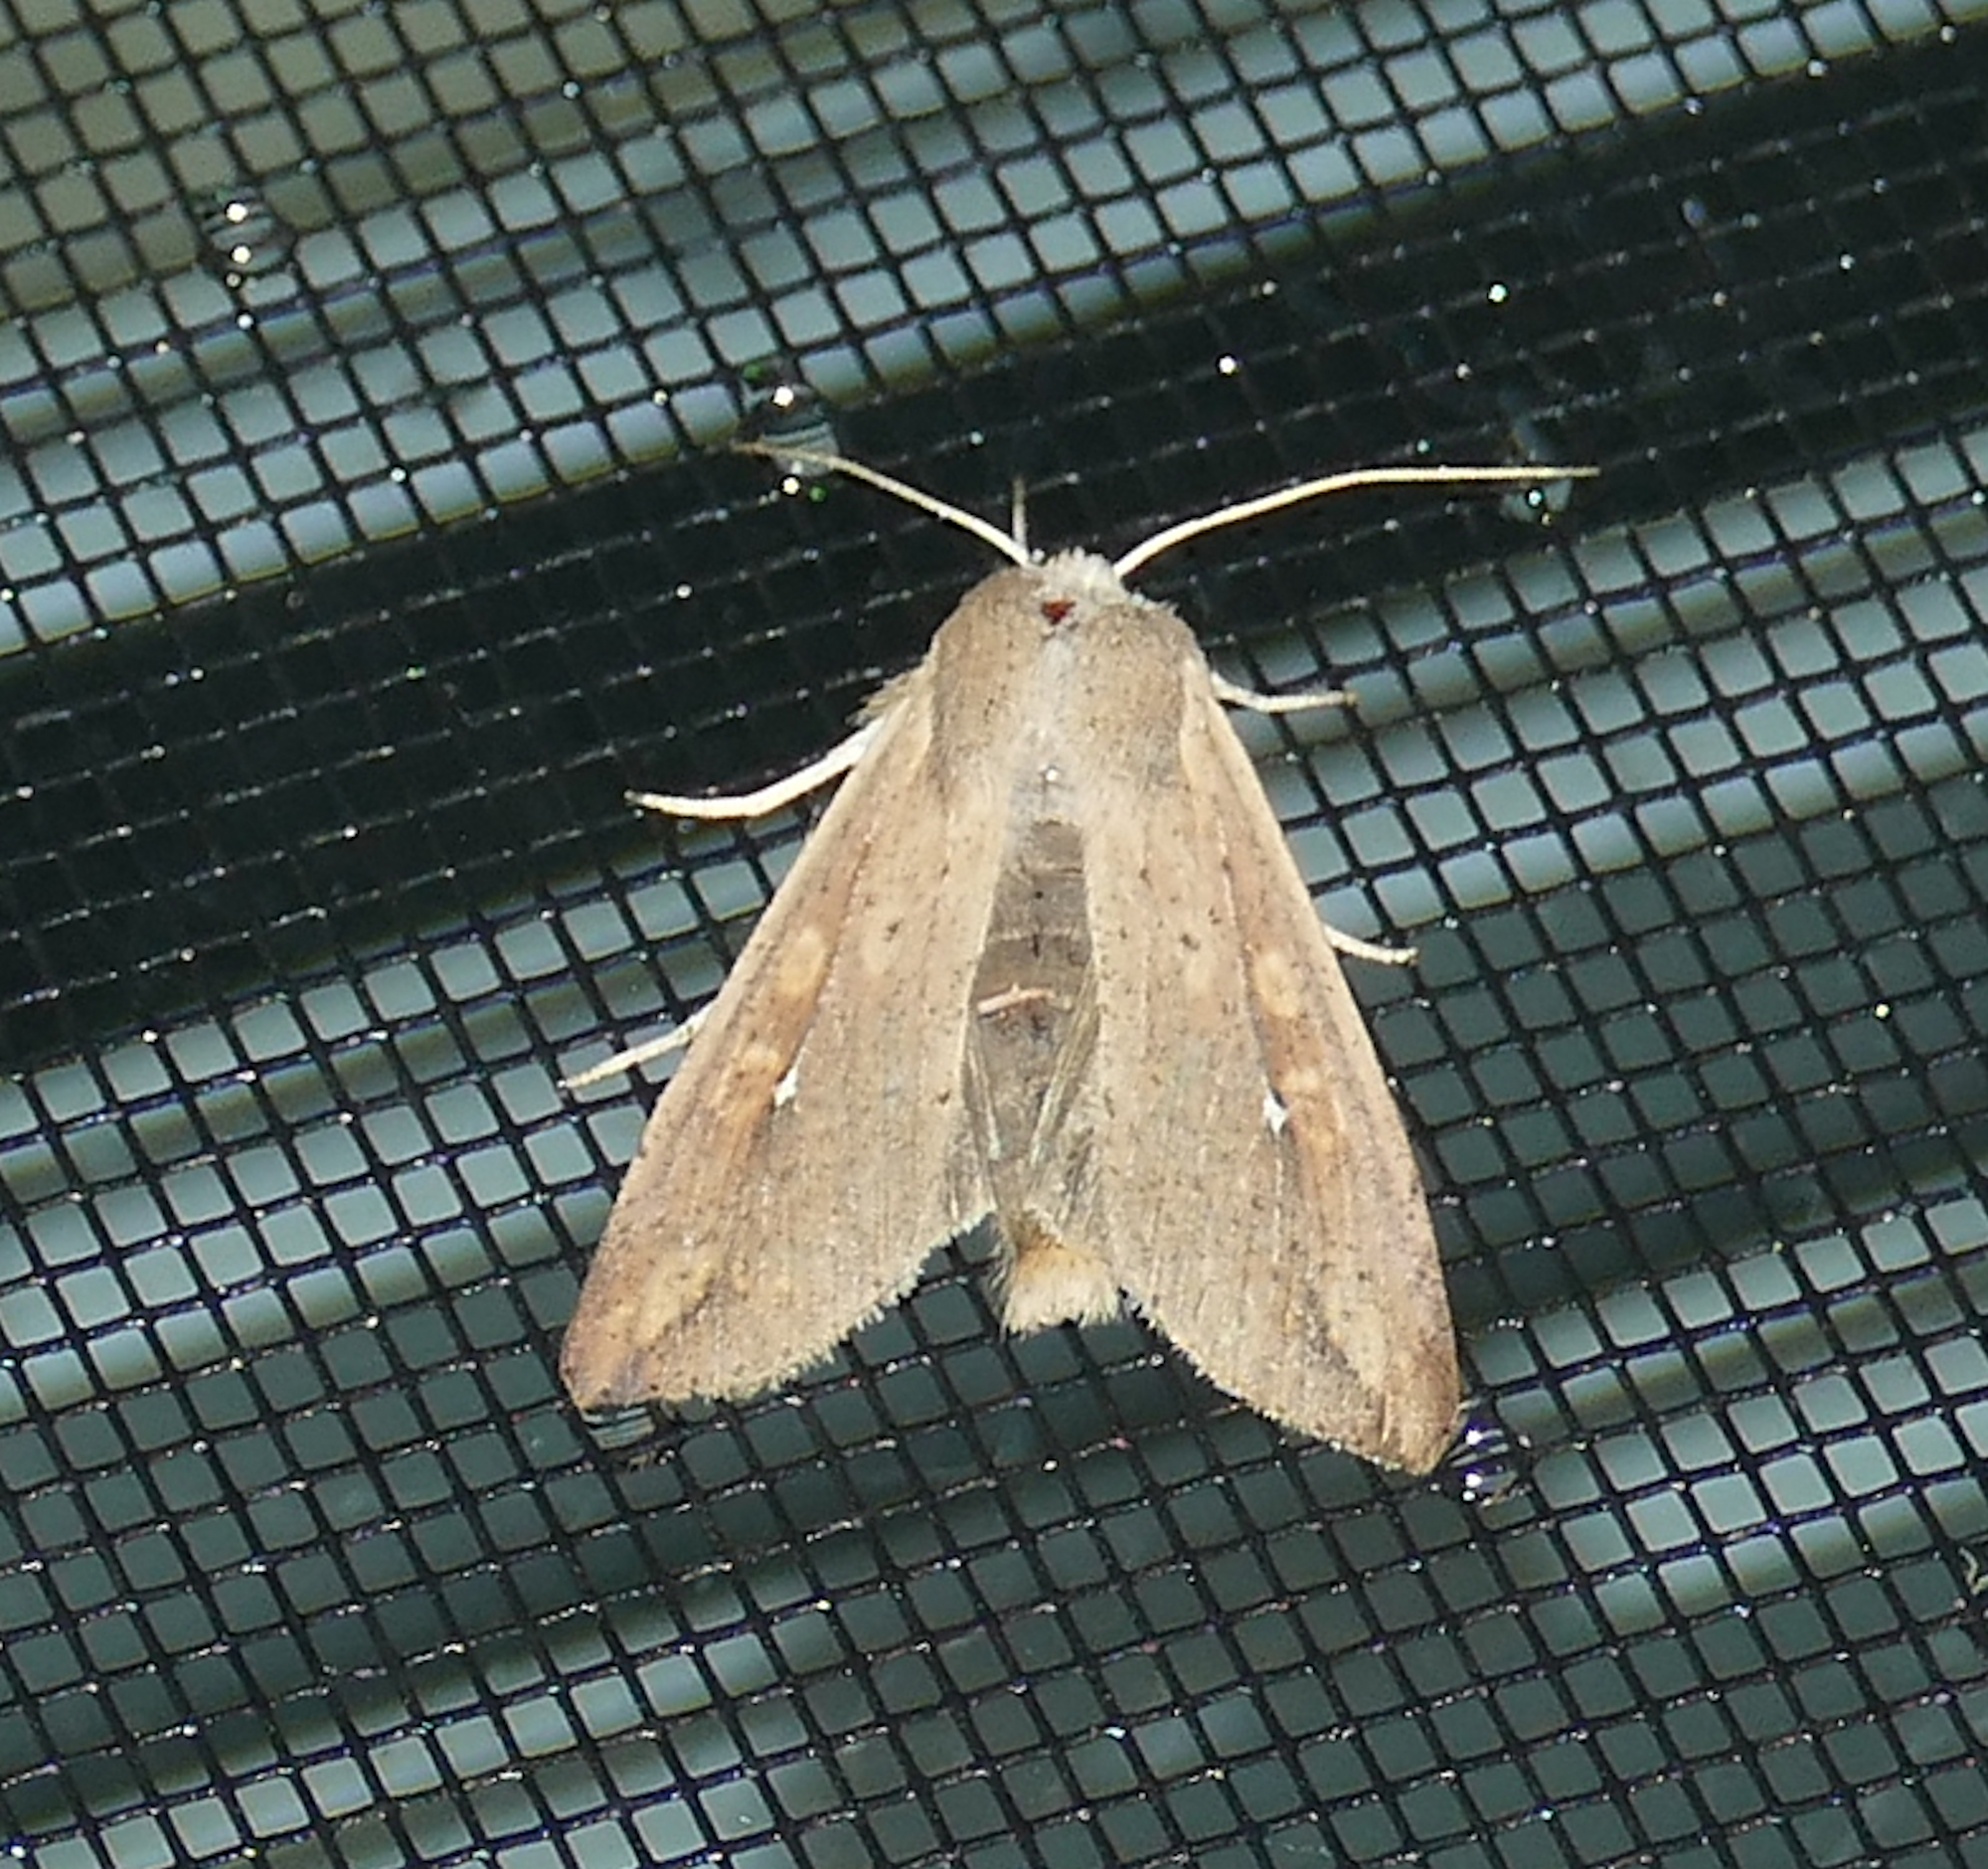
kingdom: Animalia
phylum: Arthropoda
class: Insecta
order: Lepidoptera
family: Noctuidae
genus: Mythimna
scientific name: Mythimna unipuncta
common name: White-speck
